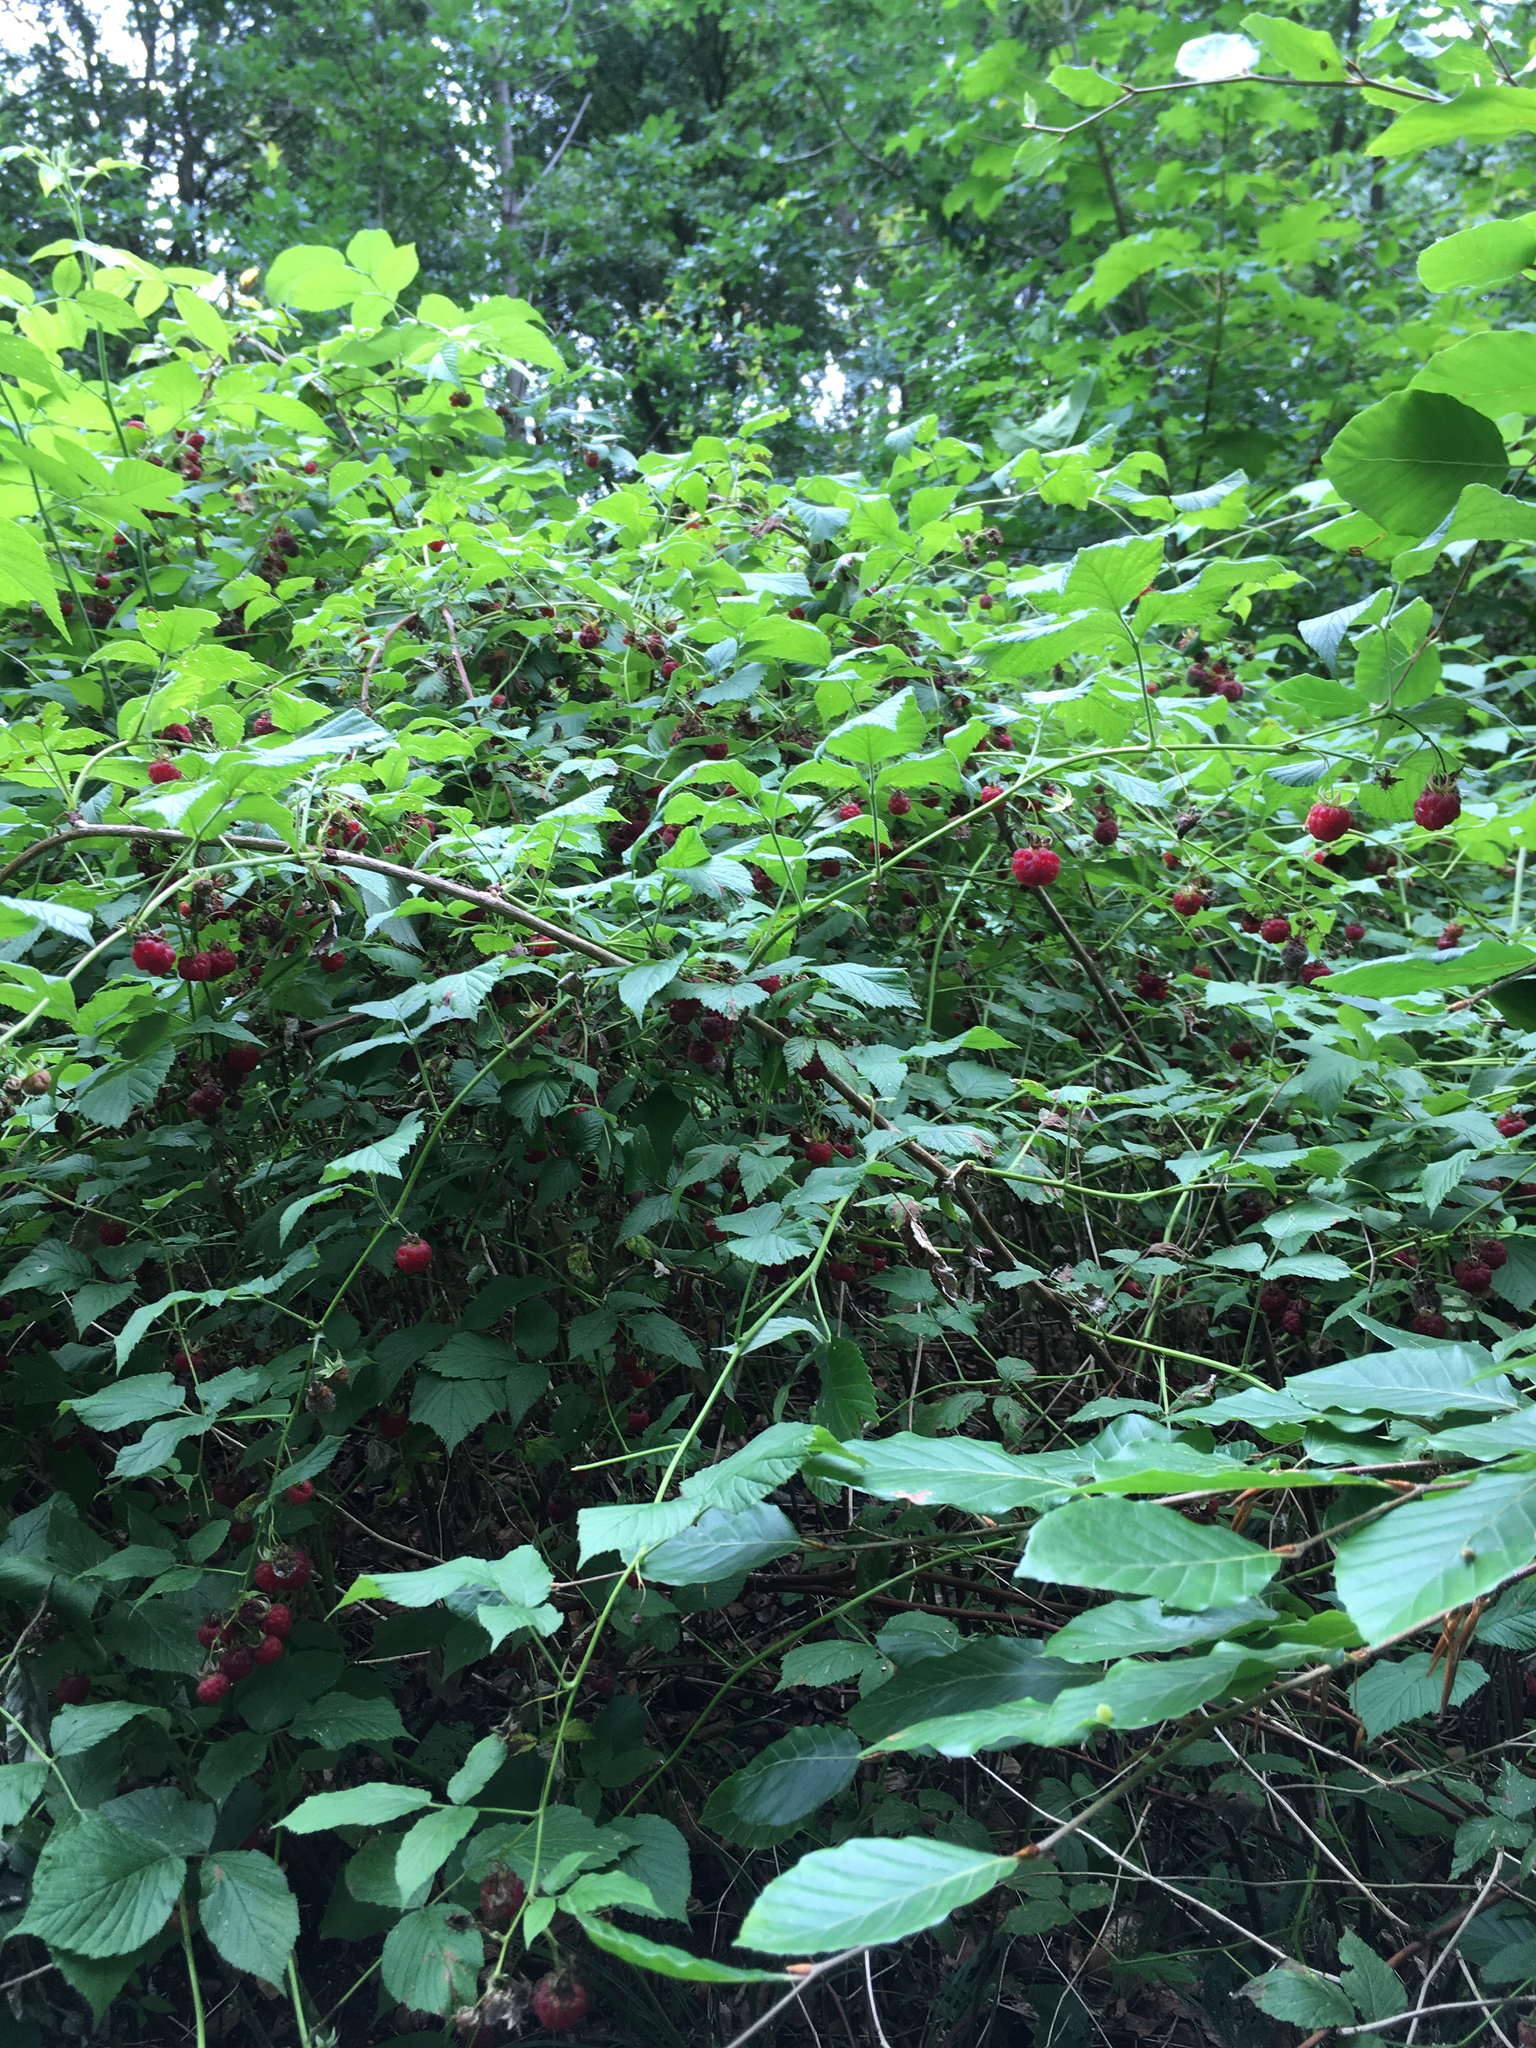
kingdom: Plantae
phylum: Tracheophyta
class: Magnoliopsida
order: Rosales
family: Rosaceae
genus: Rubus
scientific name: Rubus idaeus
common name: Raspberry
